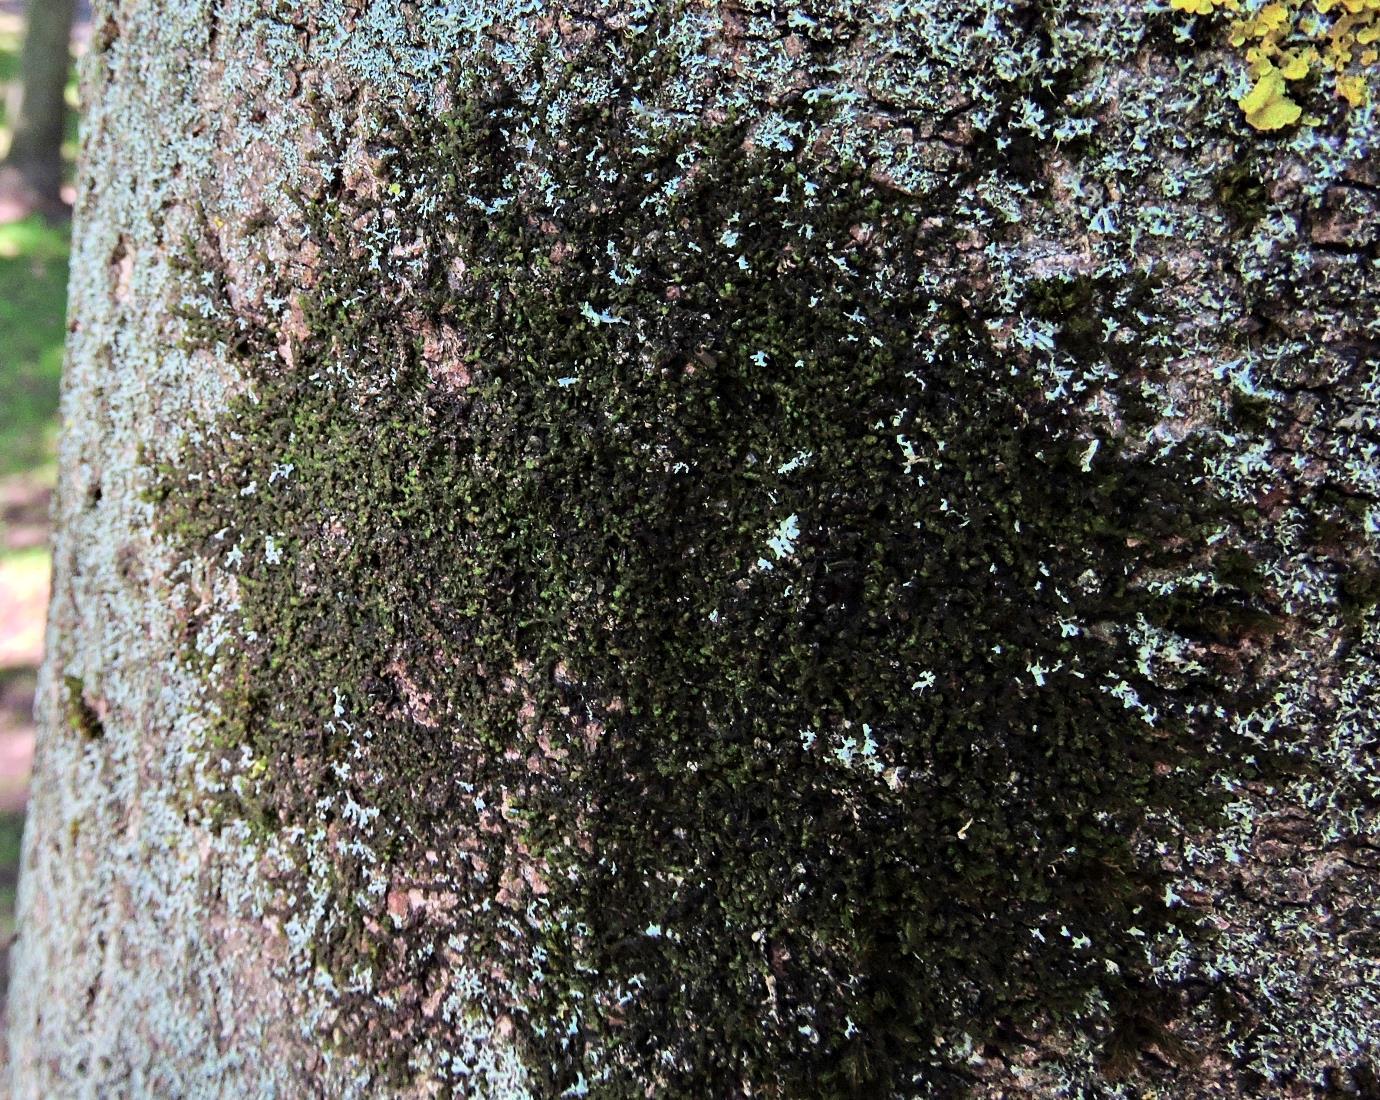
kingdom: Plantae
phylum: Marchantiophyta
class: Jungermanniopsida
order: Porellales
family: Frullaniaceae
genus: Frullania
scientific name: Frullania dilatata
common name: Dilated scalewort
